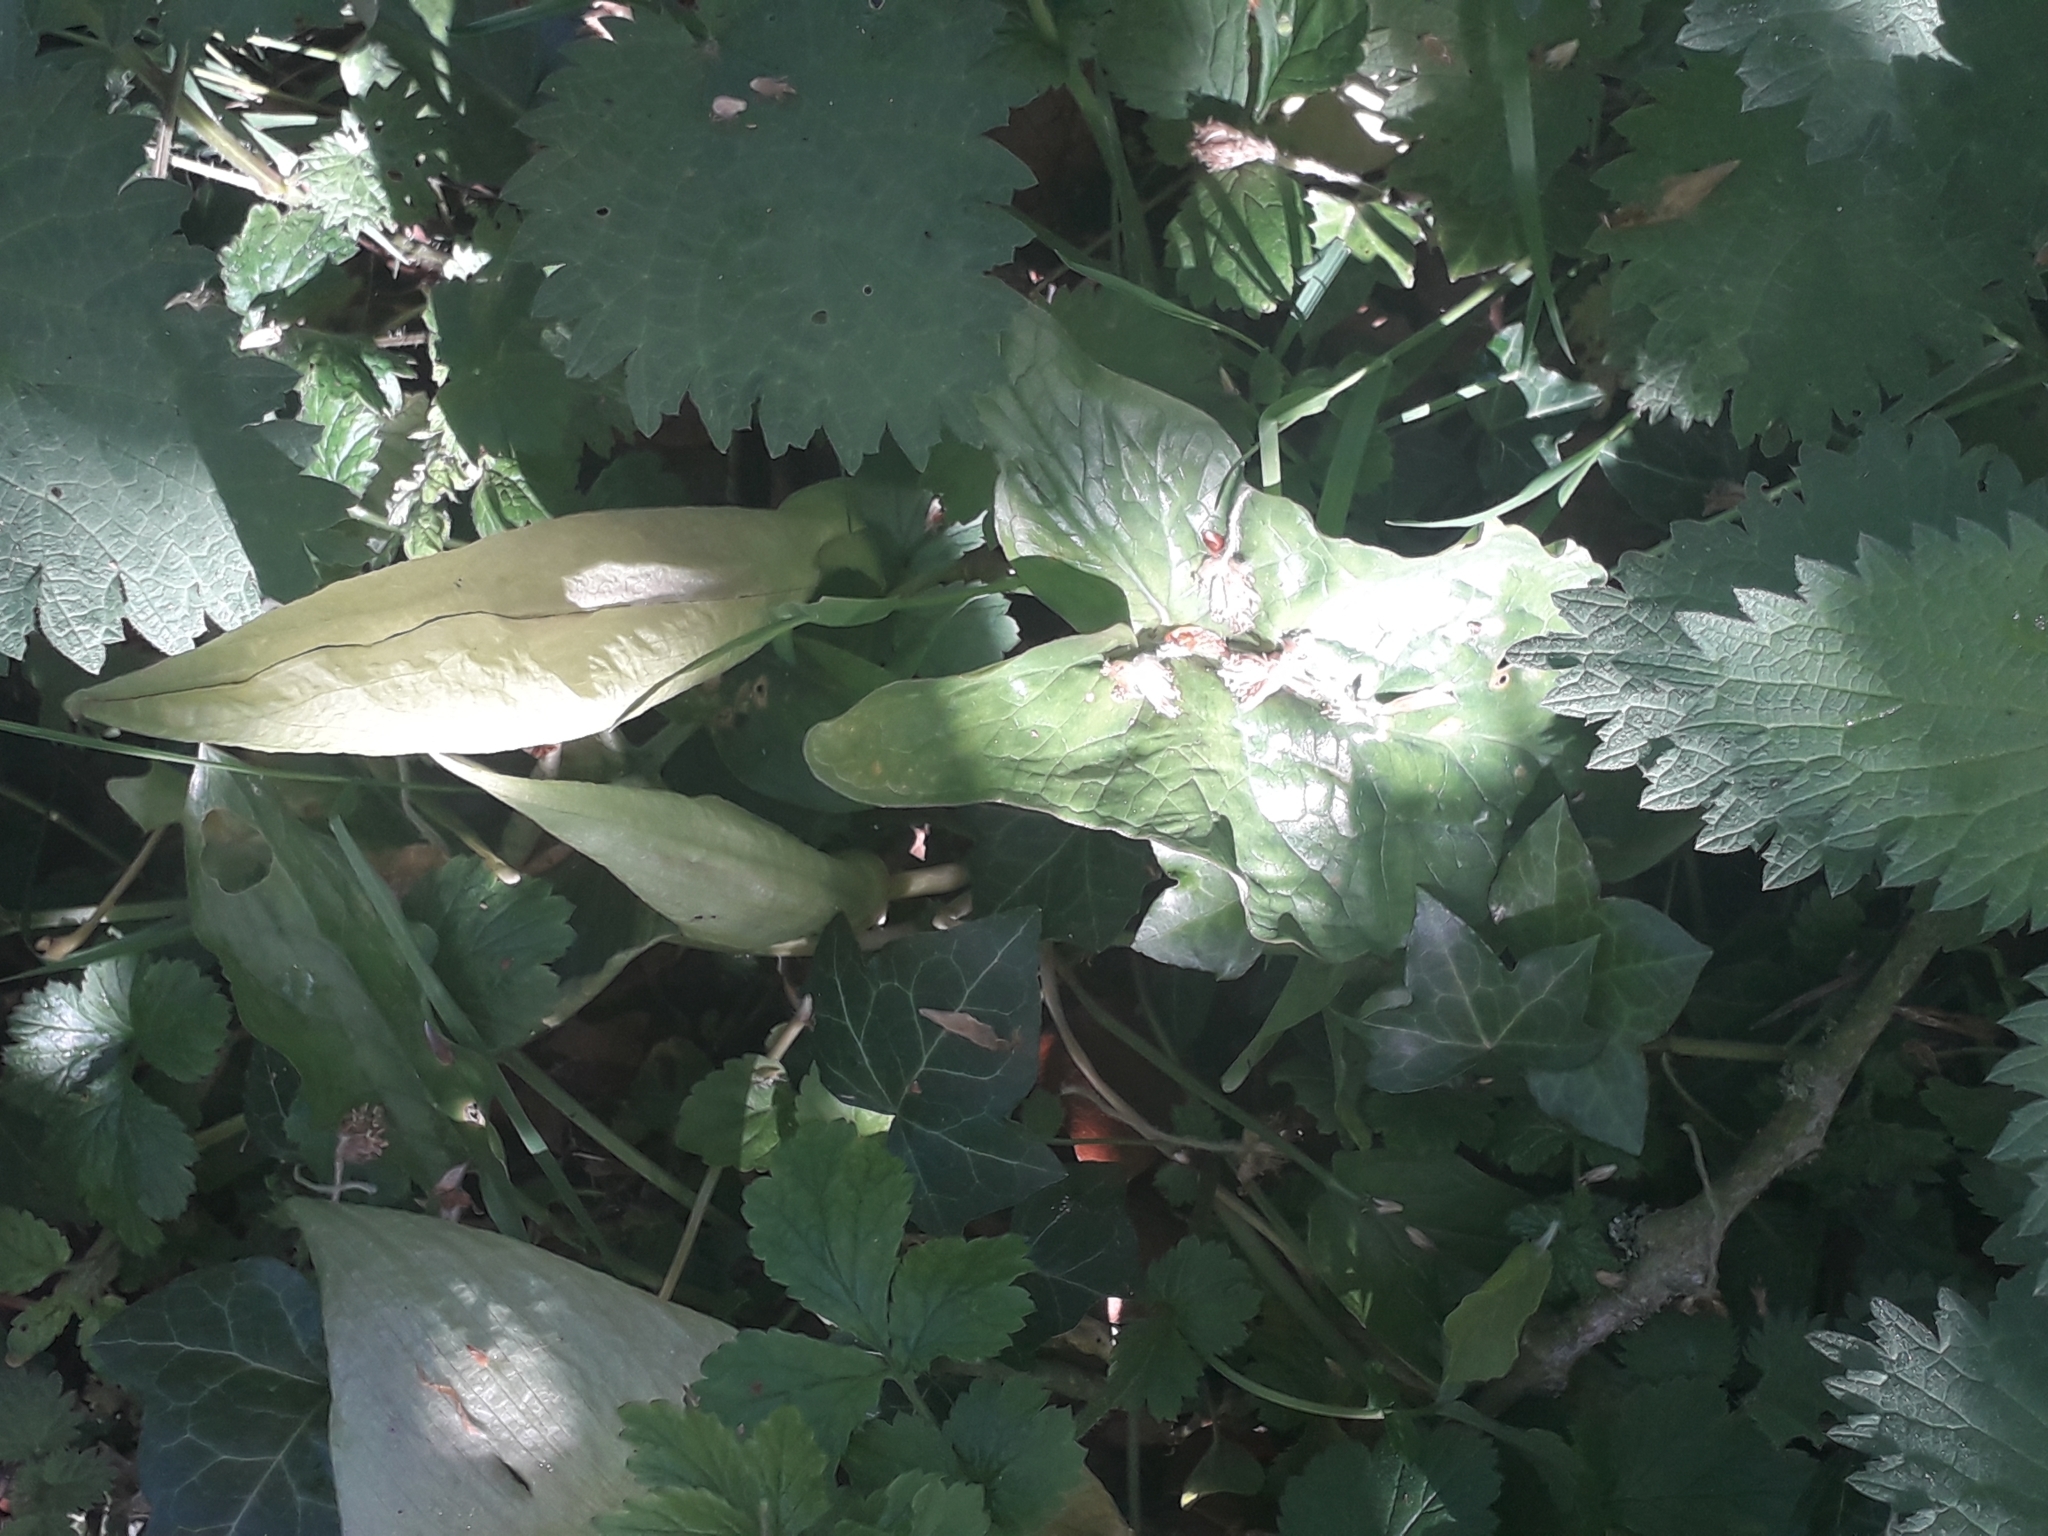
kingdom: Plantae
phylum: Tracheophyta
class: Liliopsida
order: Alismatales
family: Araceae
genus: Arum
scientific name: Arum maculatum
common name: Lords-and-ladies
